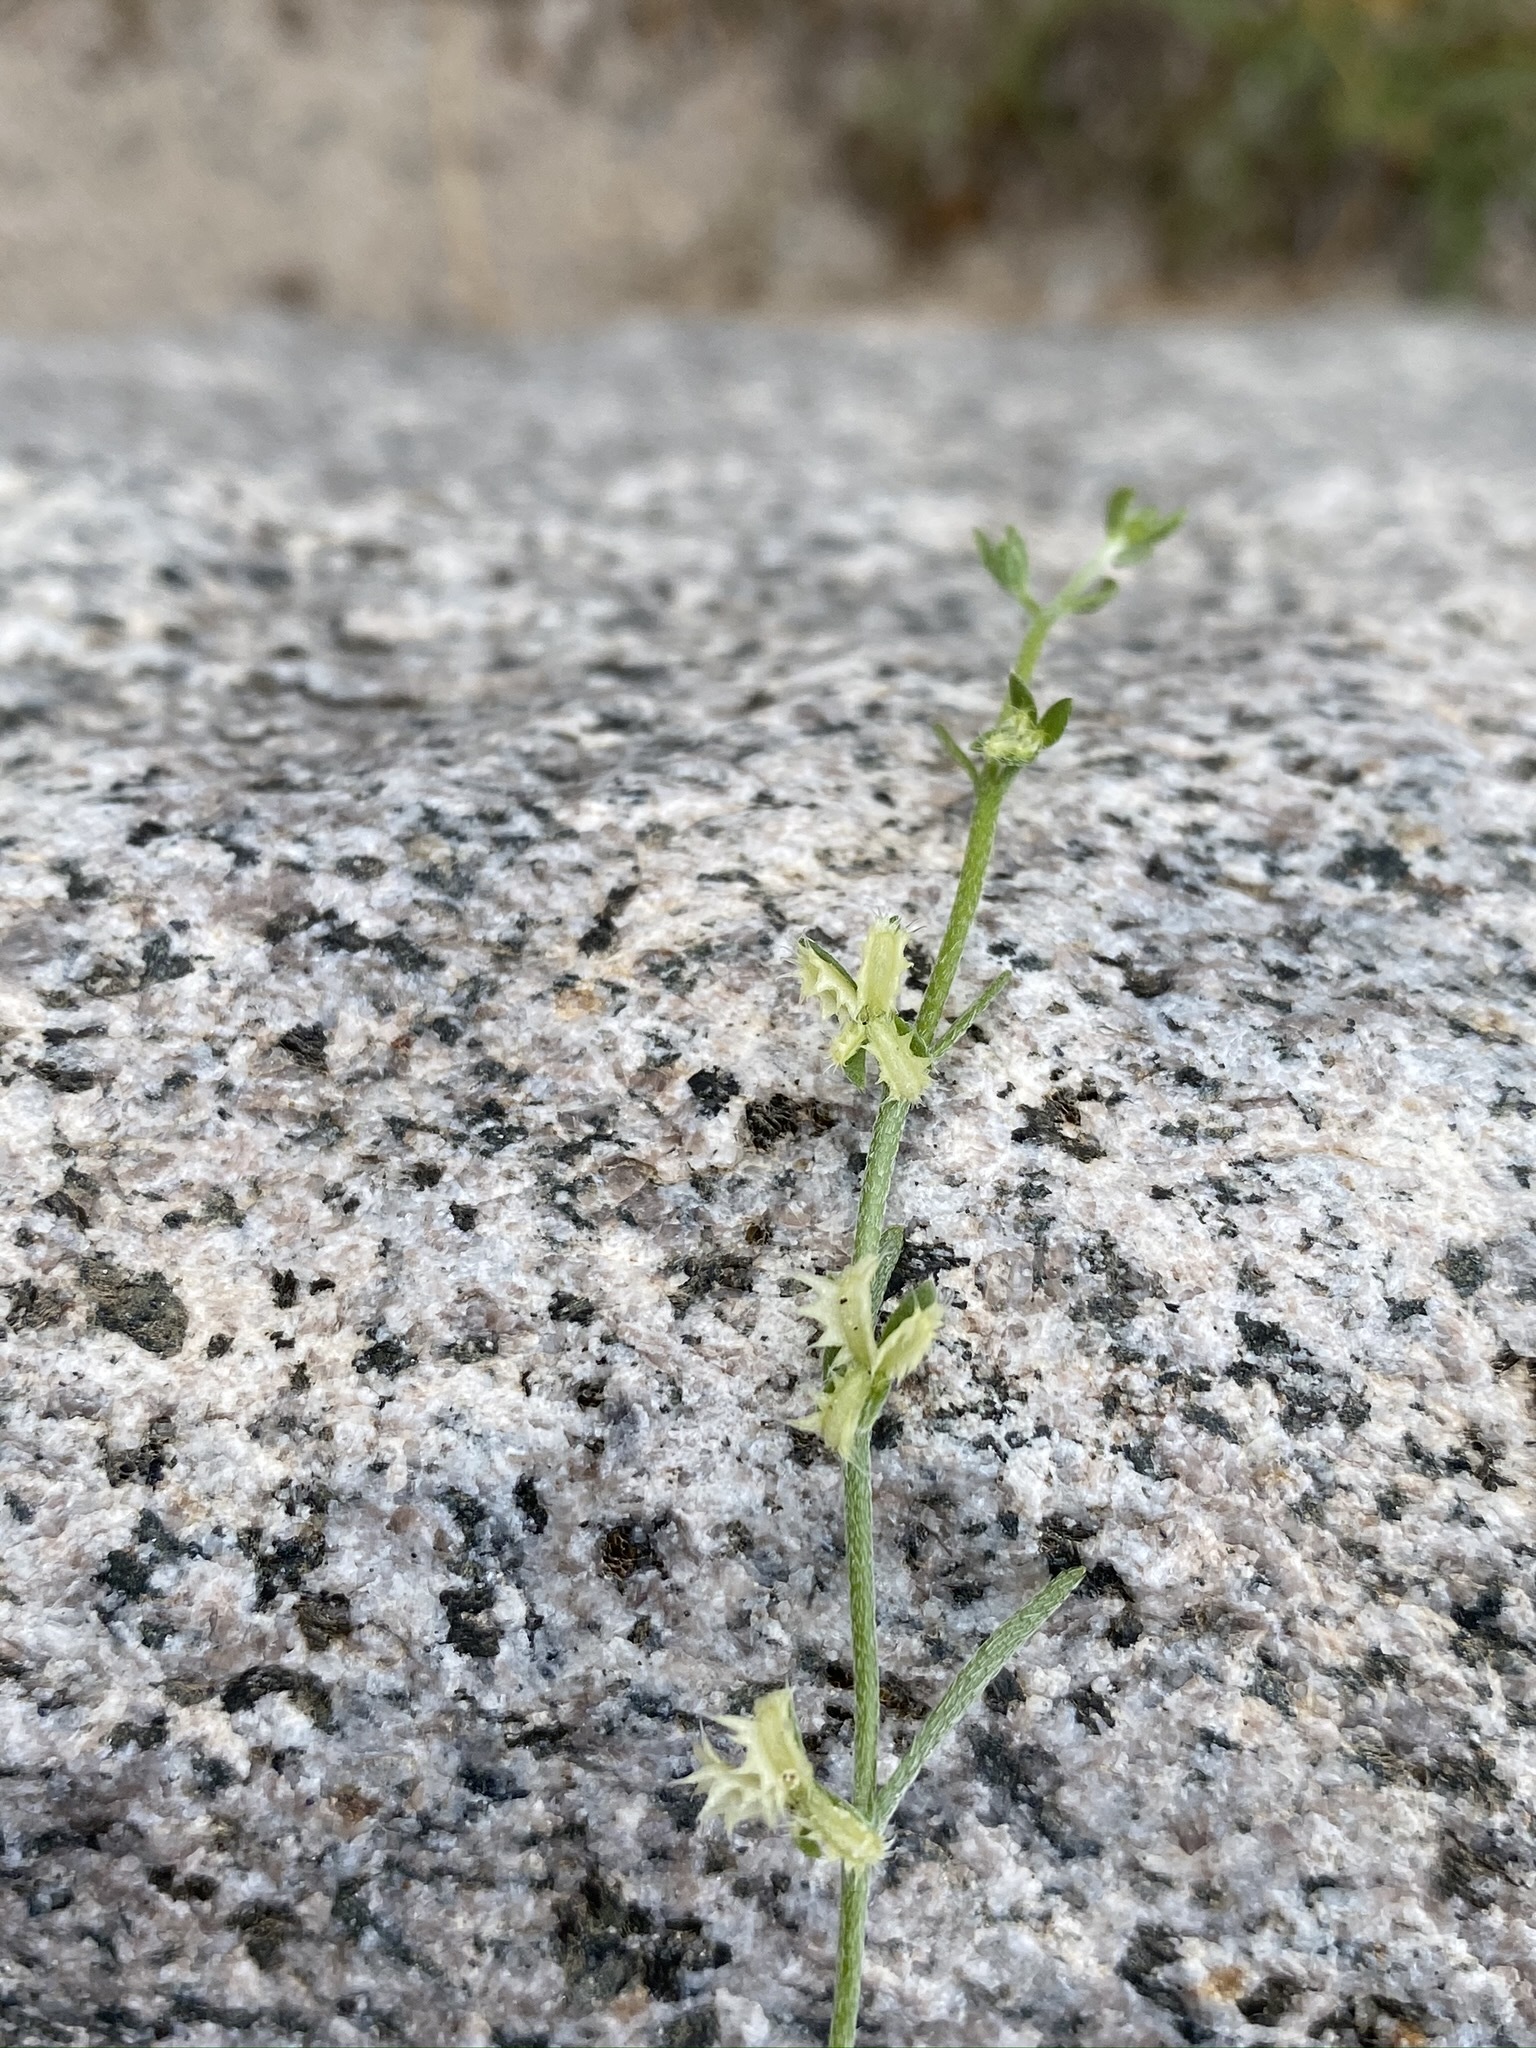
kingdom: Plantae
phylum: Tracheophyta
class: Magnoliopsida
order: Boraginales
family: Boraginaceae
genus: Pectocarya
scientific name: Pectocarya platycarpa
